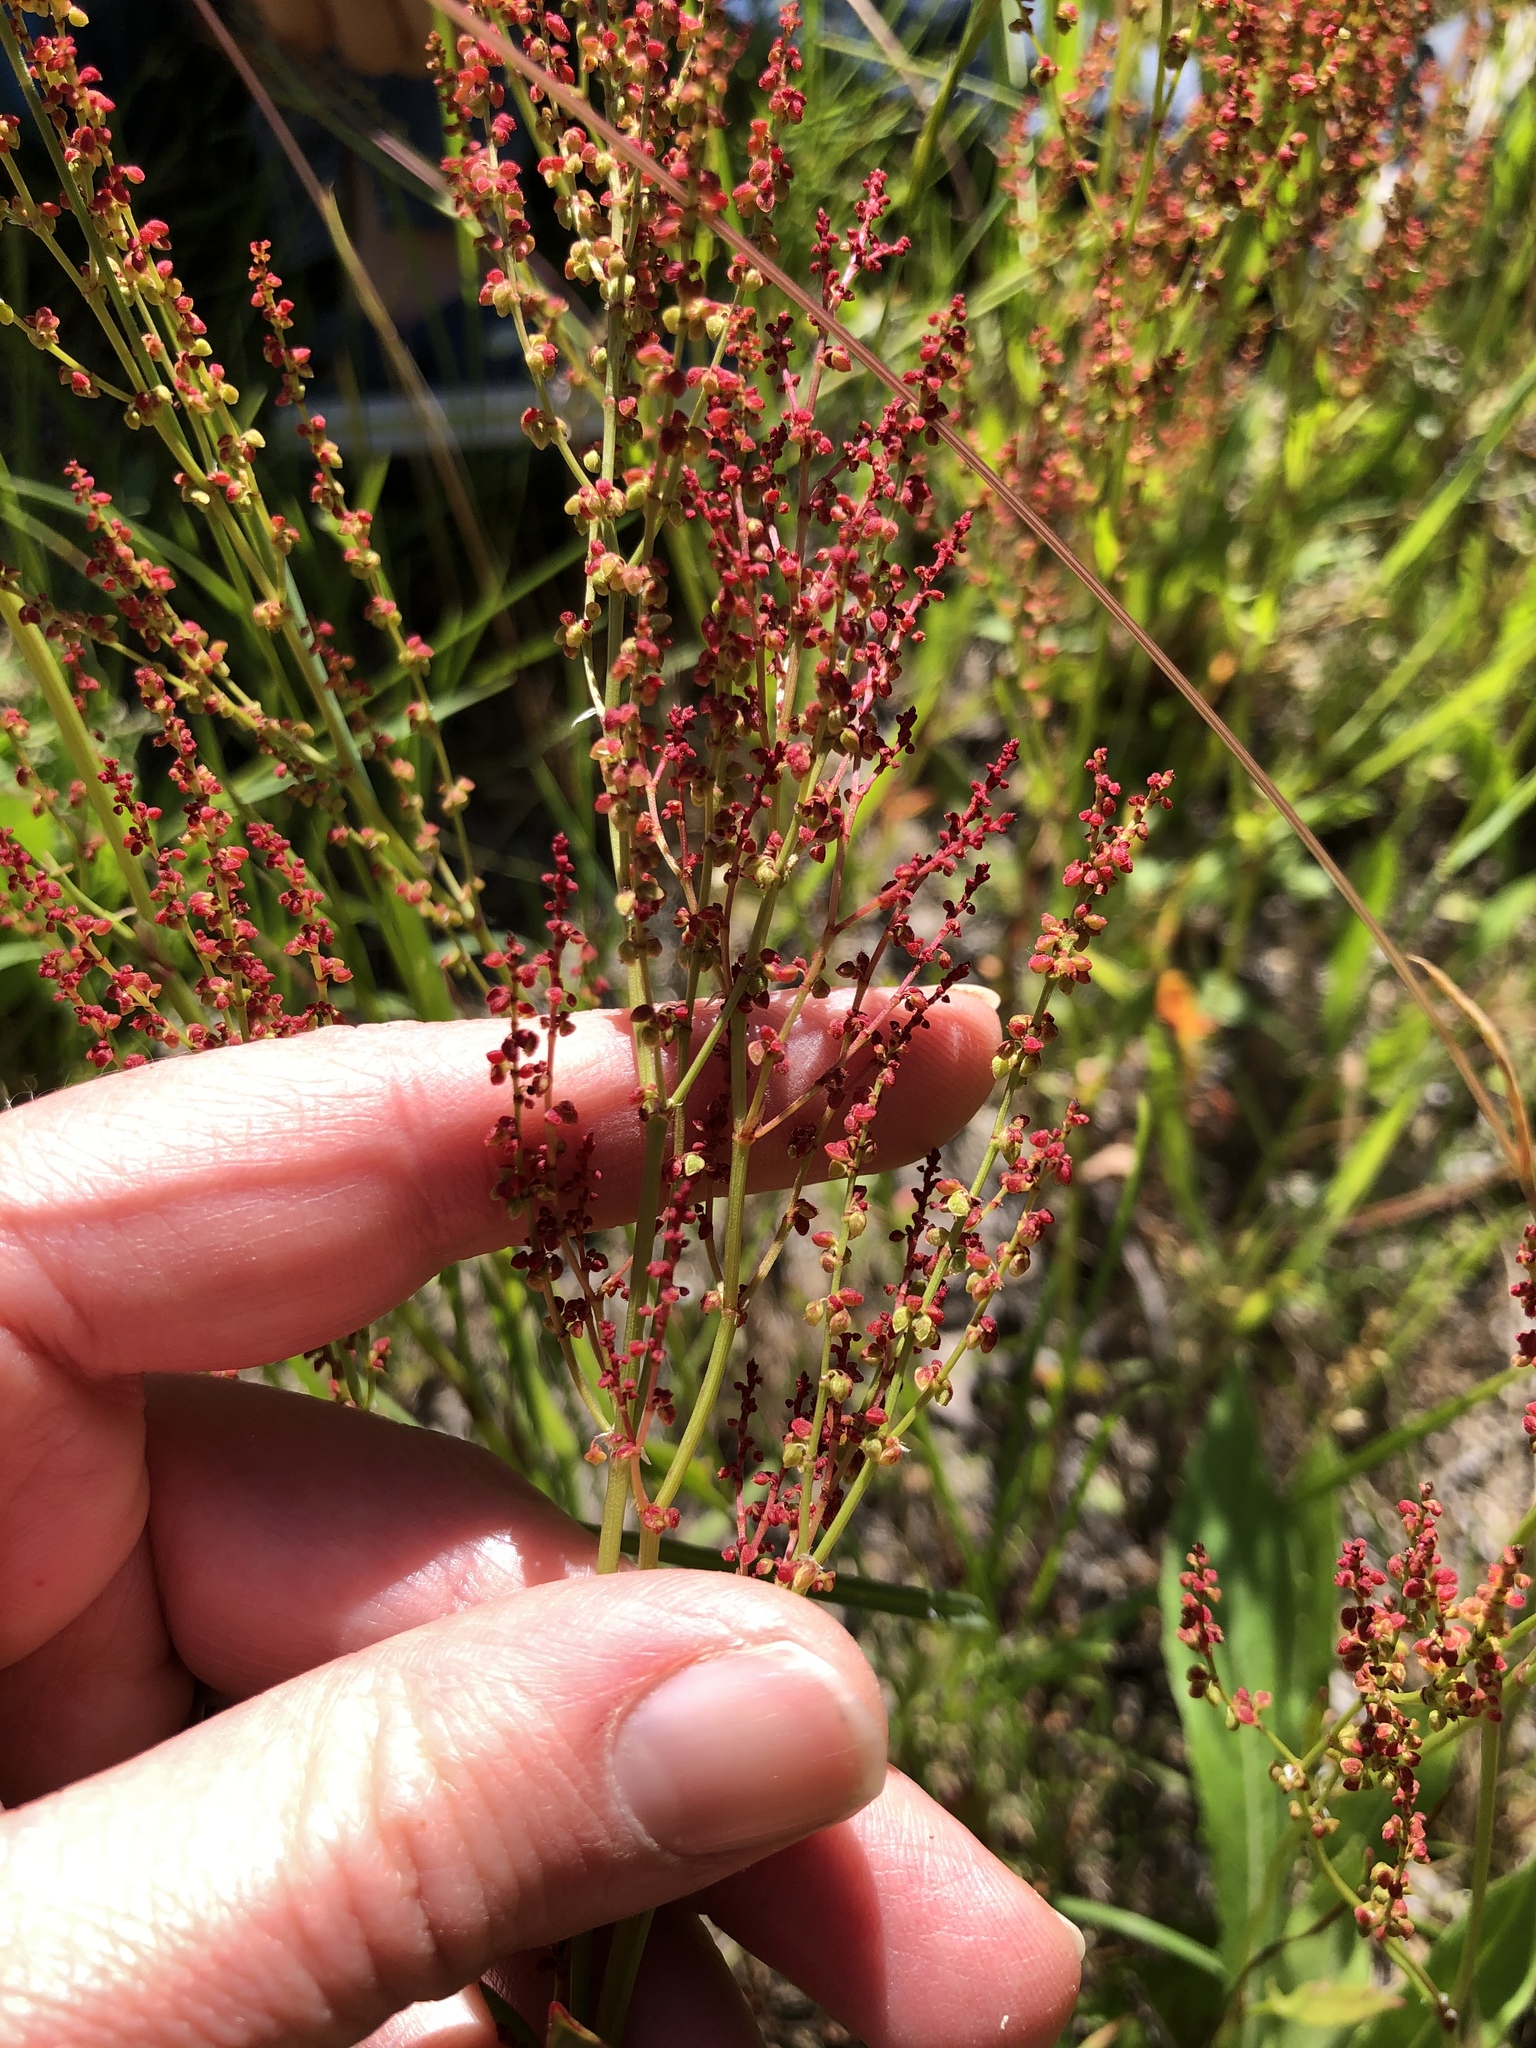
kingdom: Plantae
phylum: Tracheophyta
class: Magnoliopsida
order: Caryophyllales
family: Polygonaceae
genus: Rumex
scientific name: Rumex acetosella
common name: Common sheep sorrel
